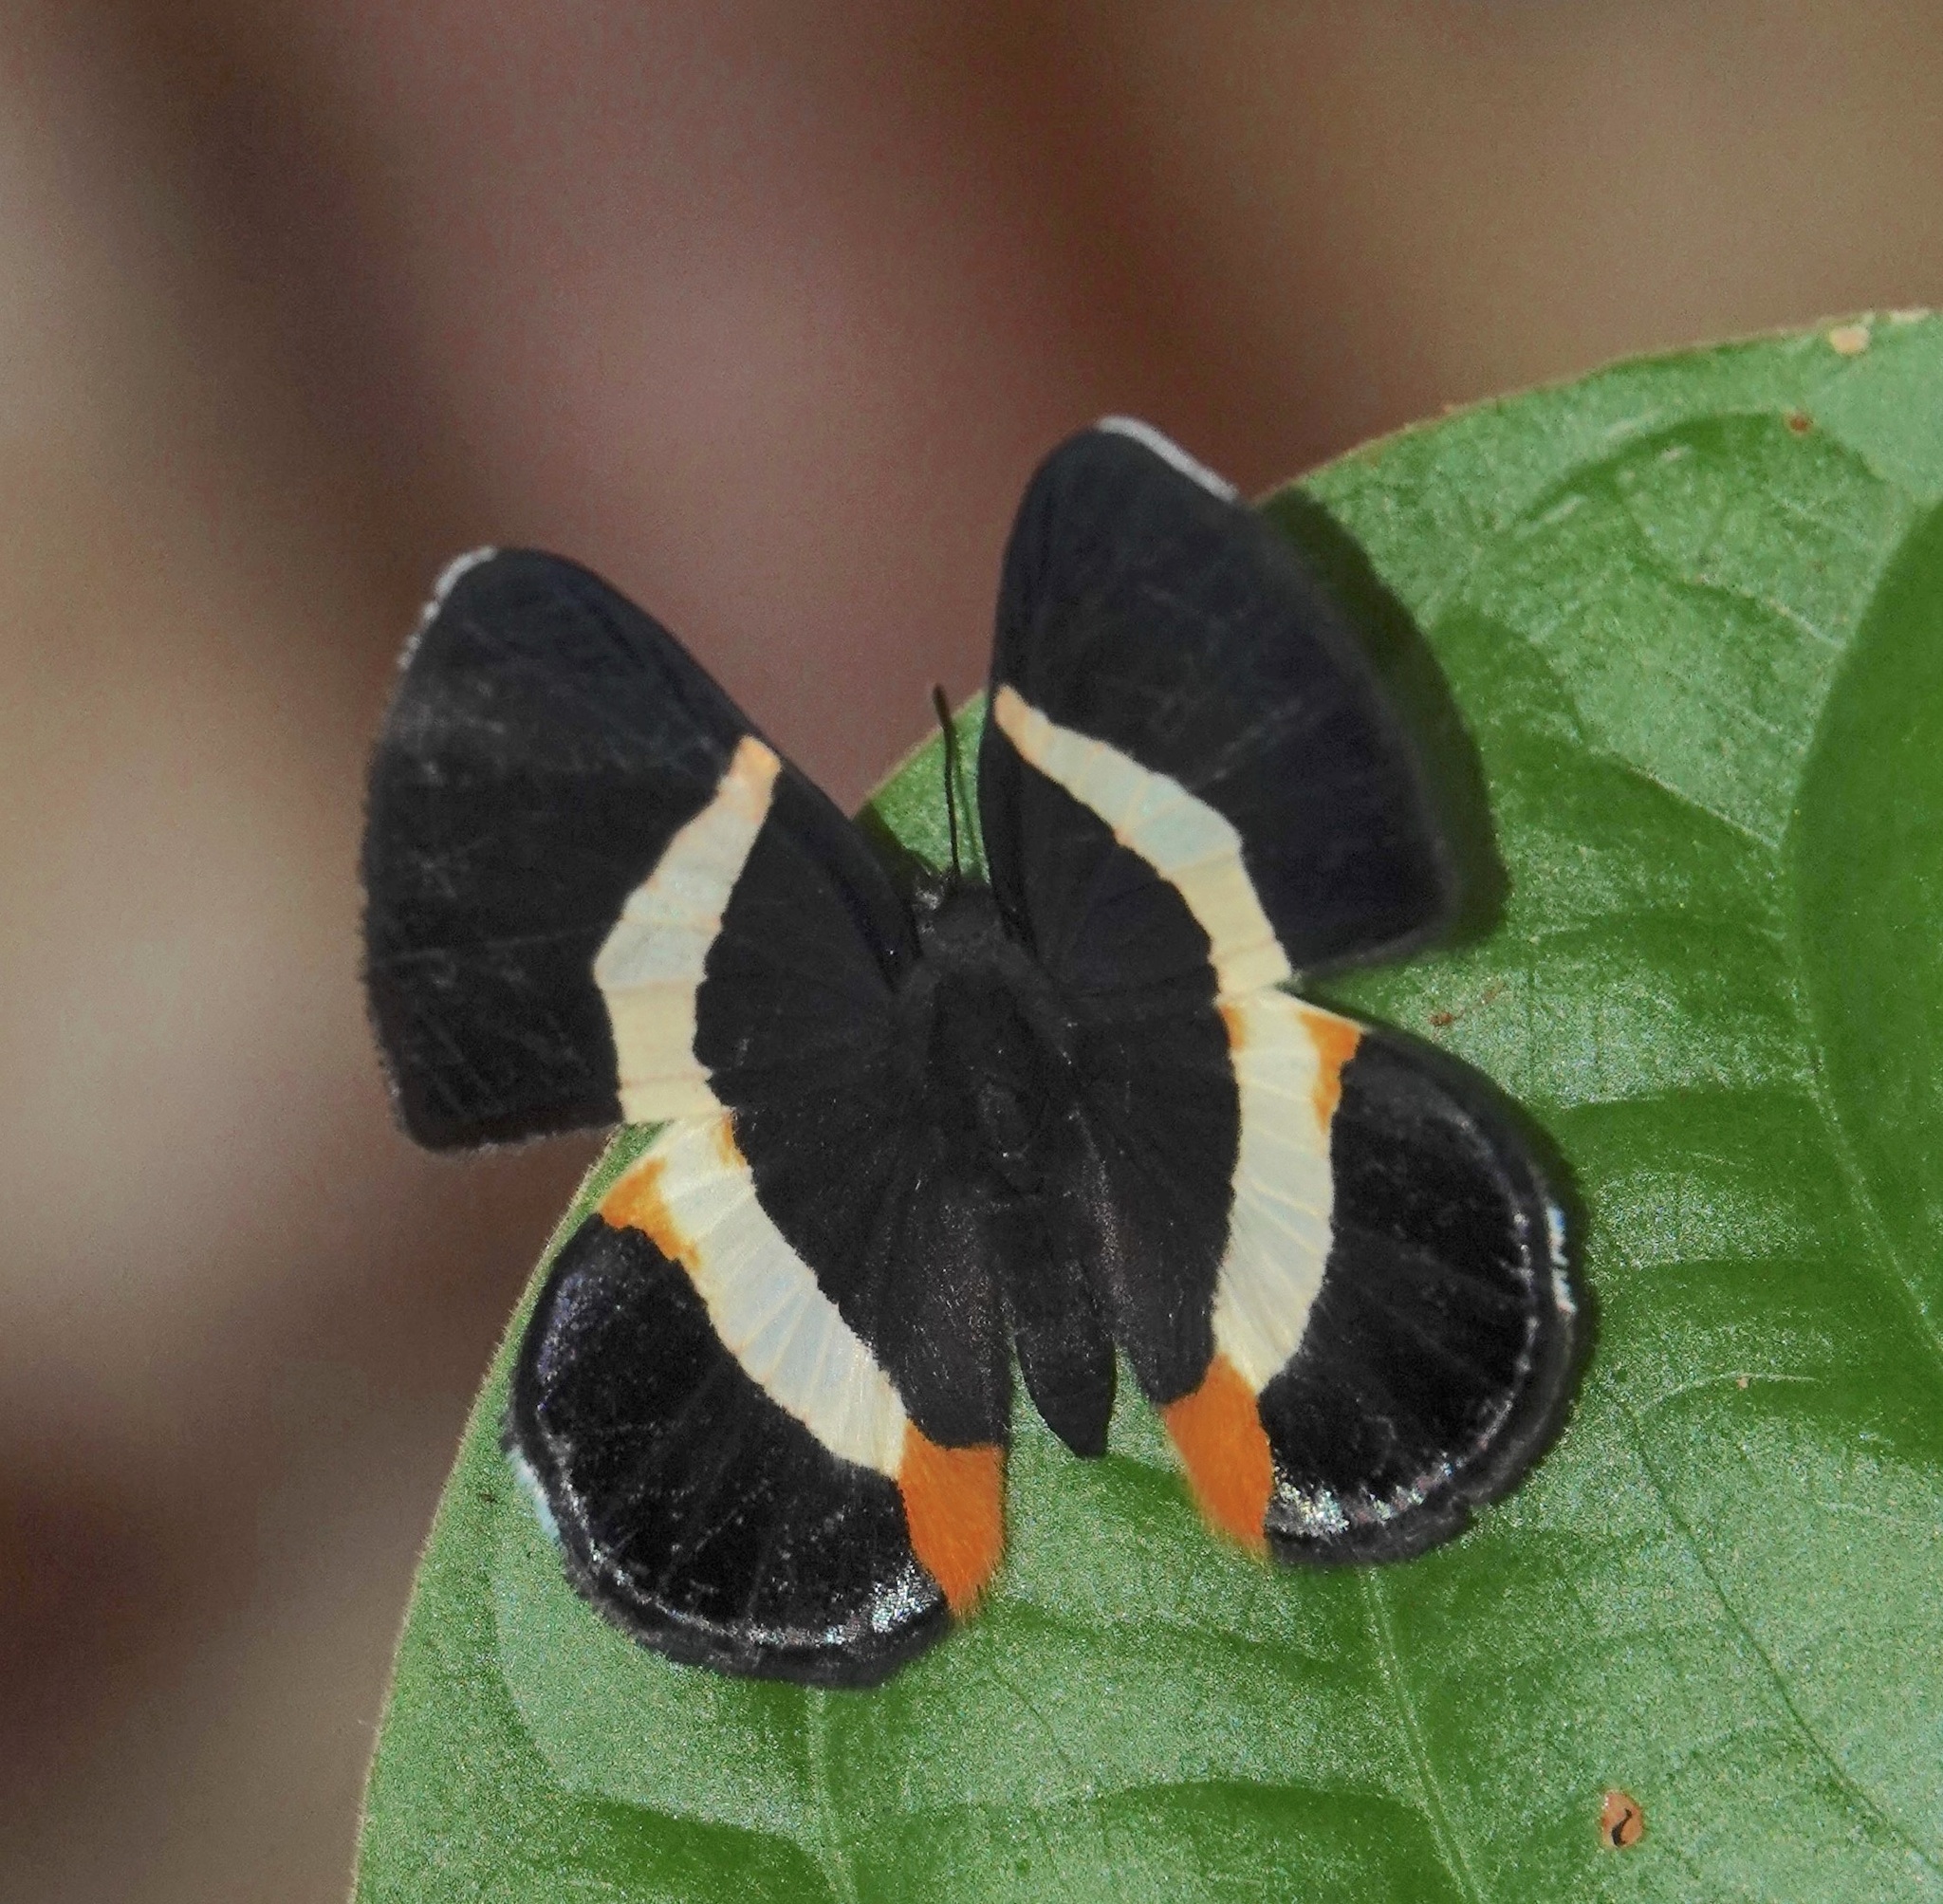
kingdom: Animalia
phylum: Arthropoda
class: Insecta
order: Lepidoptera
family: Riodinidae
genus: Notheme
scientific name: Notheme eumeus
